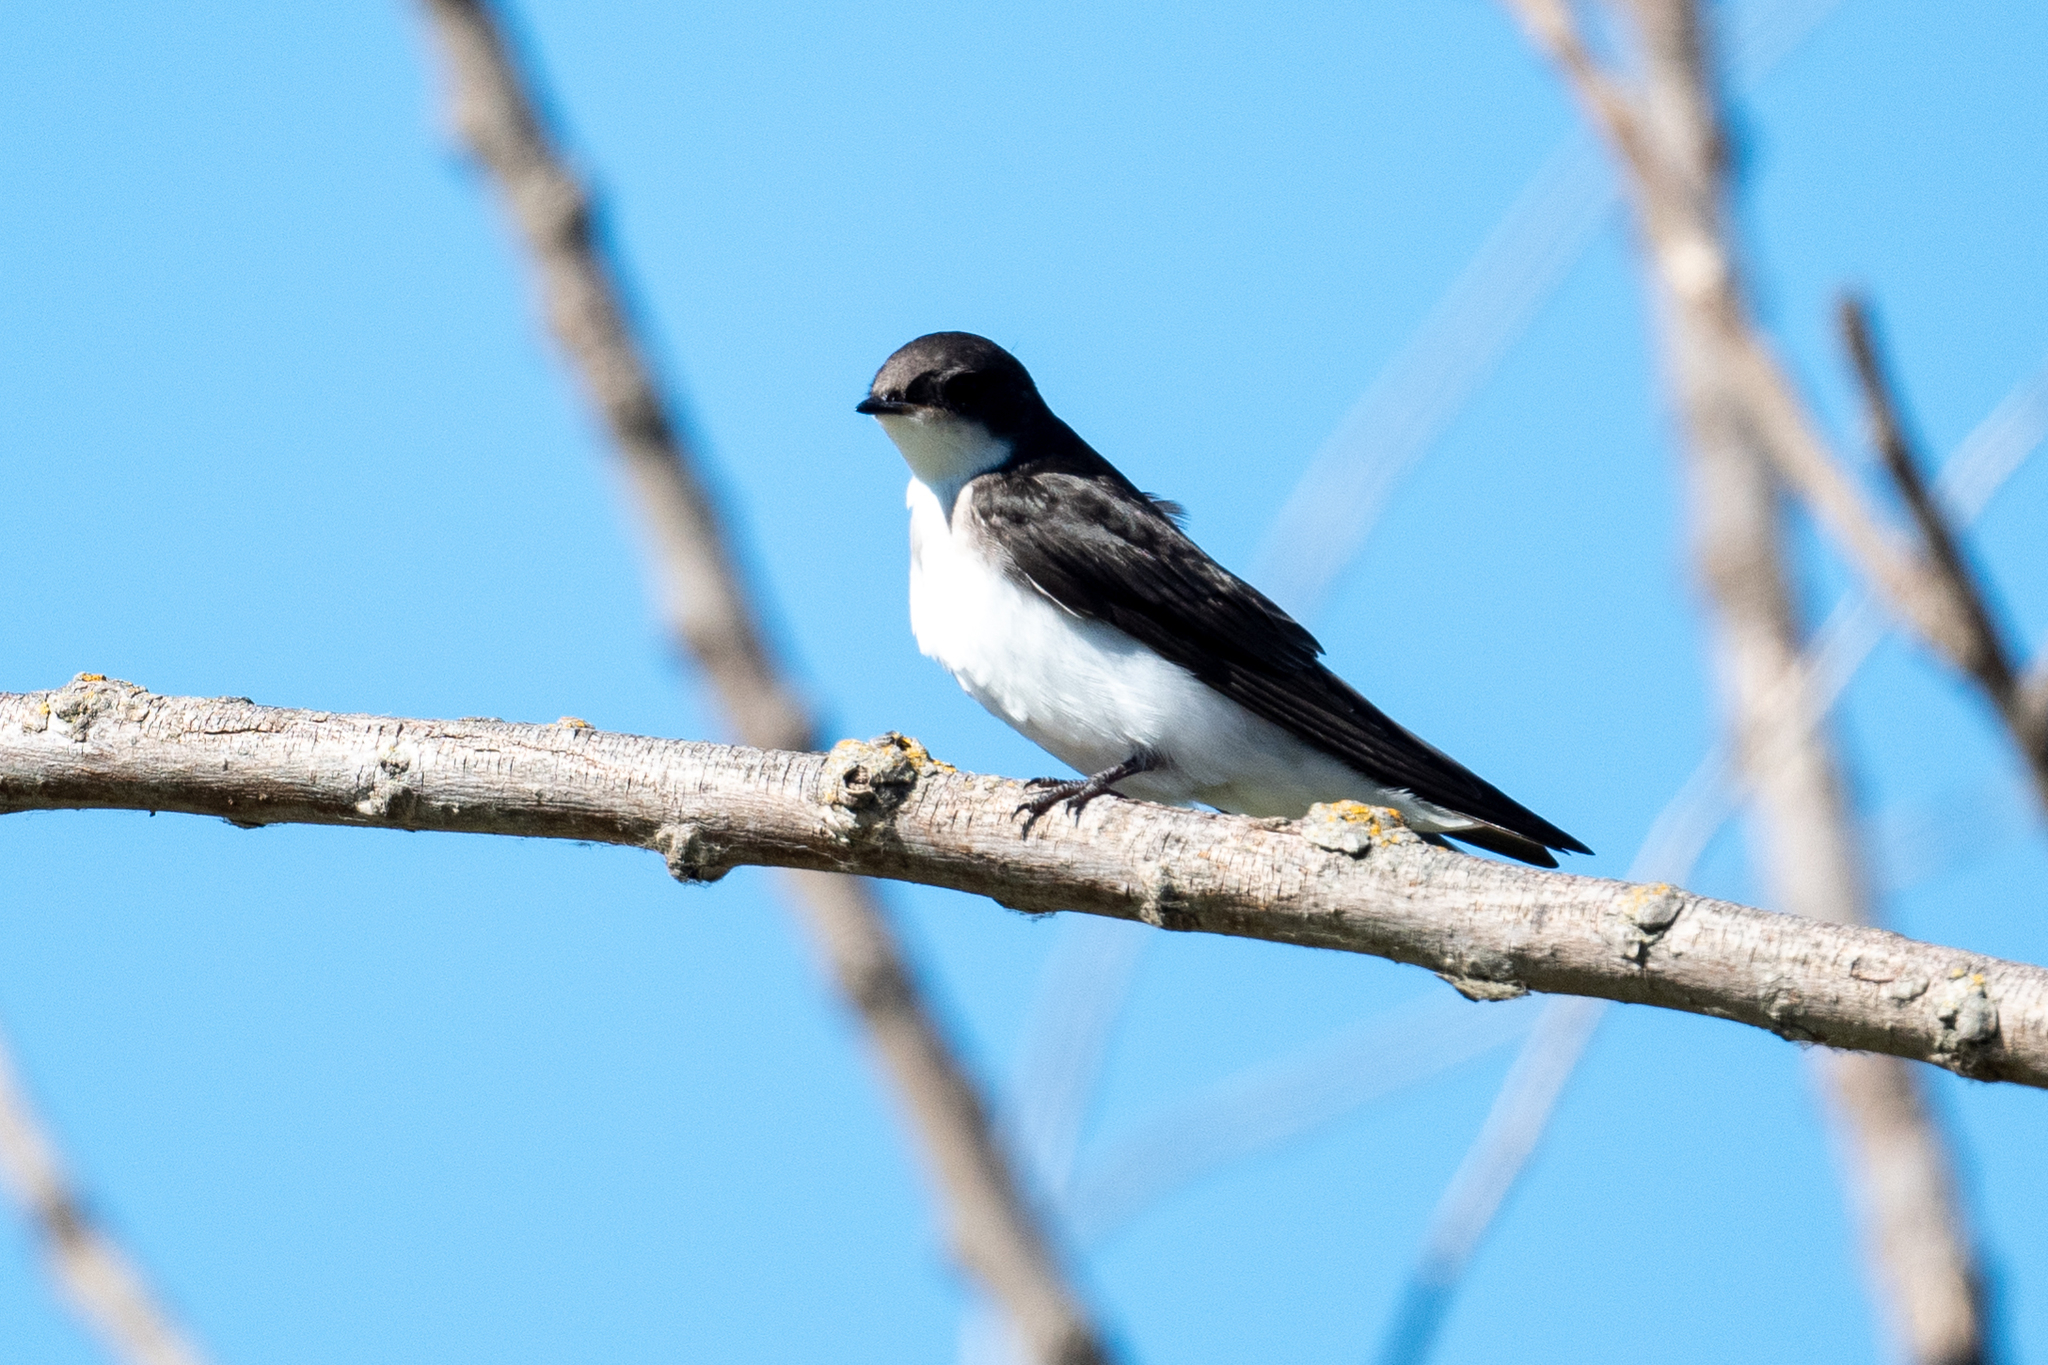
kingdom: Animalia
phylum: Chordata
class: Aves
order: Passeriformes
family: Hirundinidae
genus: Tachycineta
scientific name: Tachycineta bicolor
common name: Tree swallow
